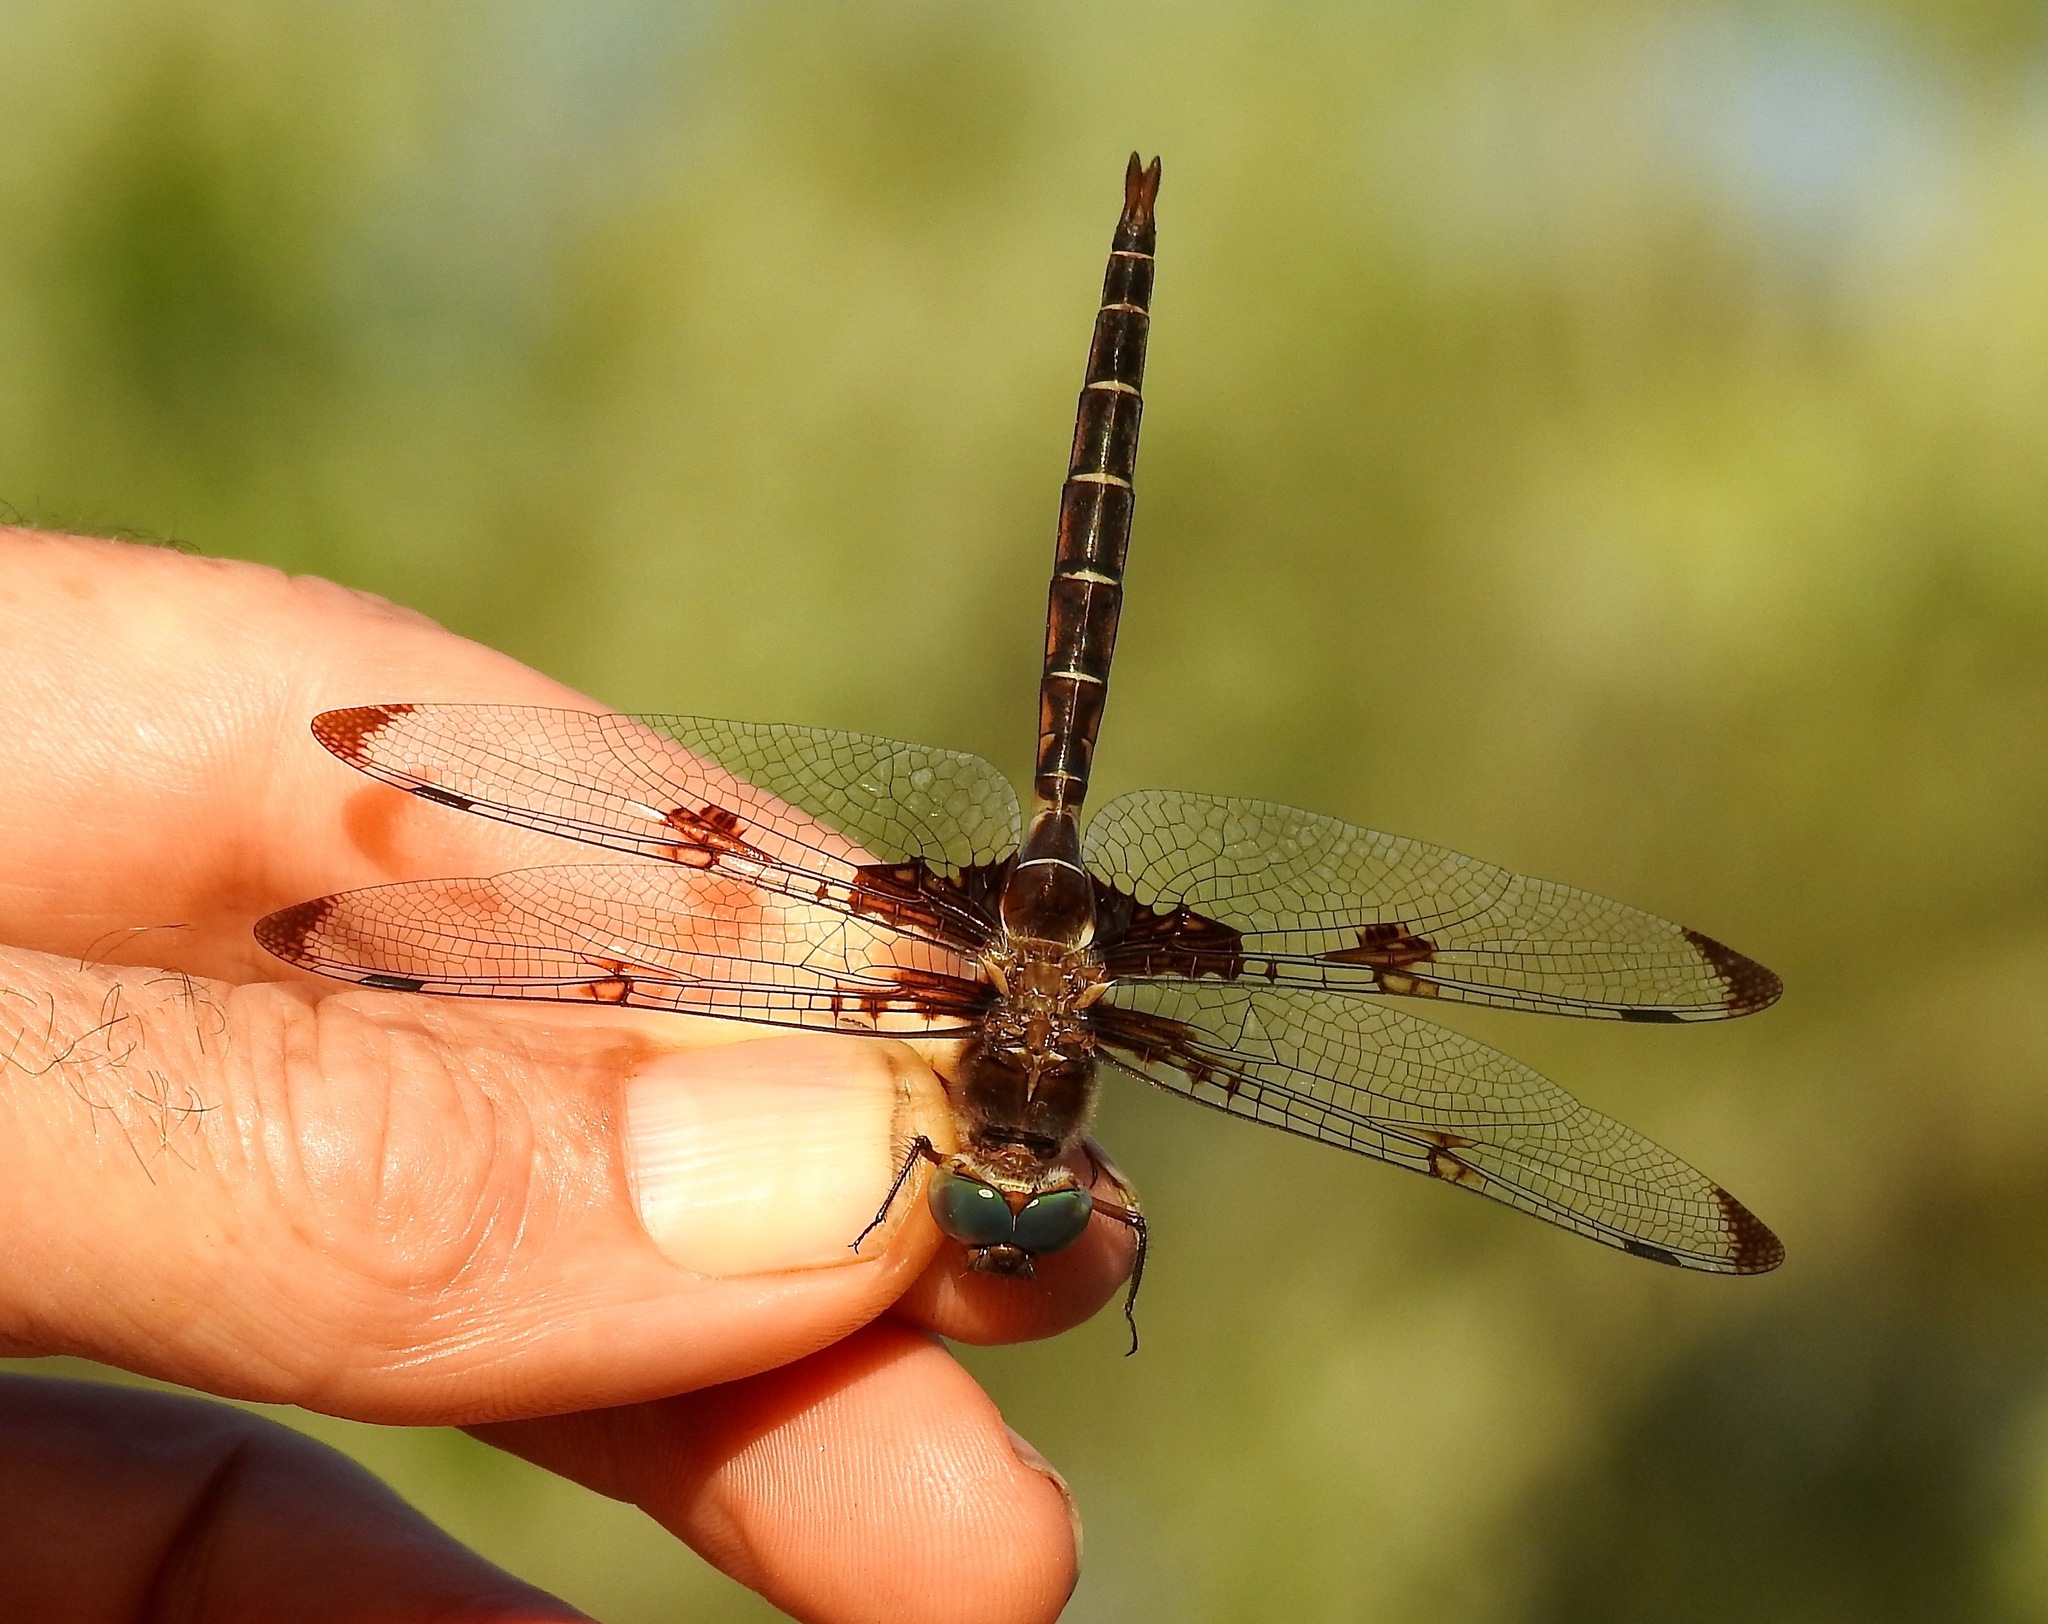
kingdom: Animalia
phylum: Arthropoda
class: Insecta
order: Odonata
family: Corduliidae
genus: Epitheca
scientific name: Epitheca princeps
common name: Prince baskettail
